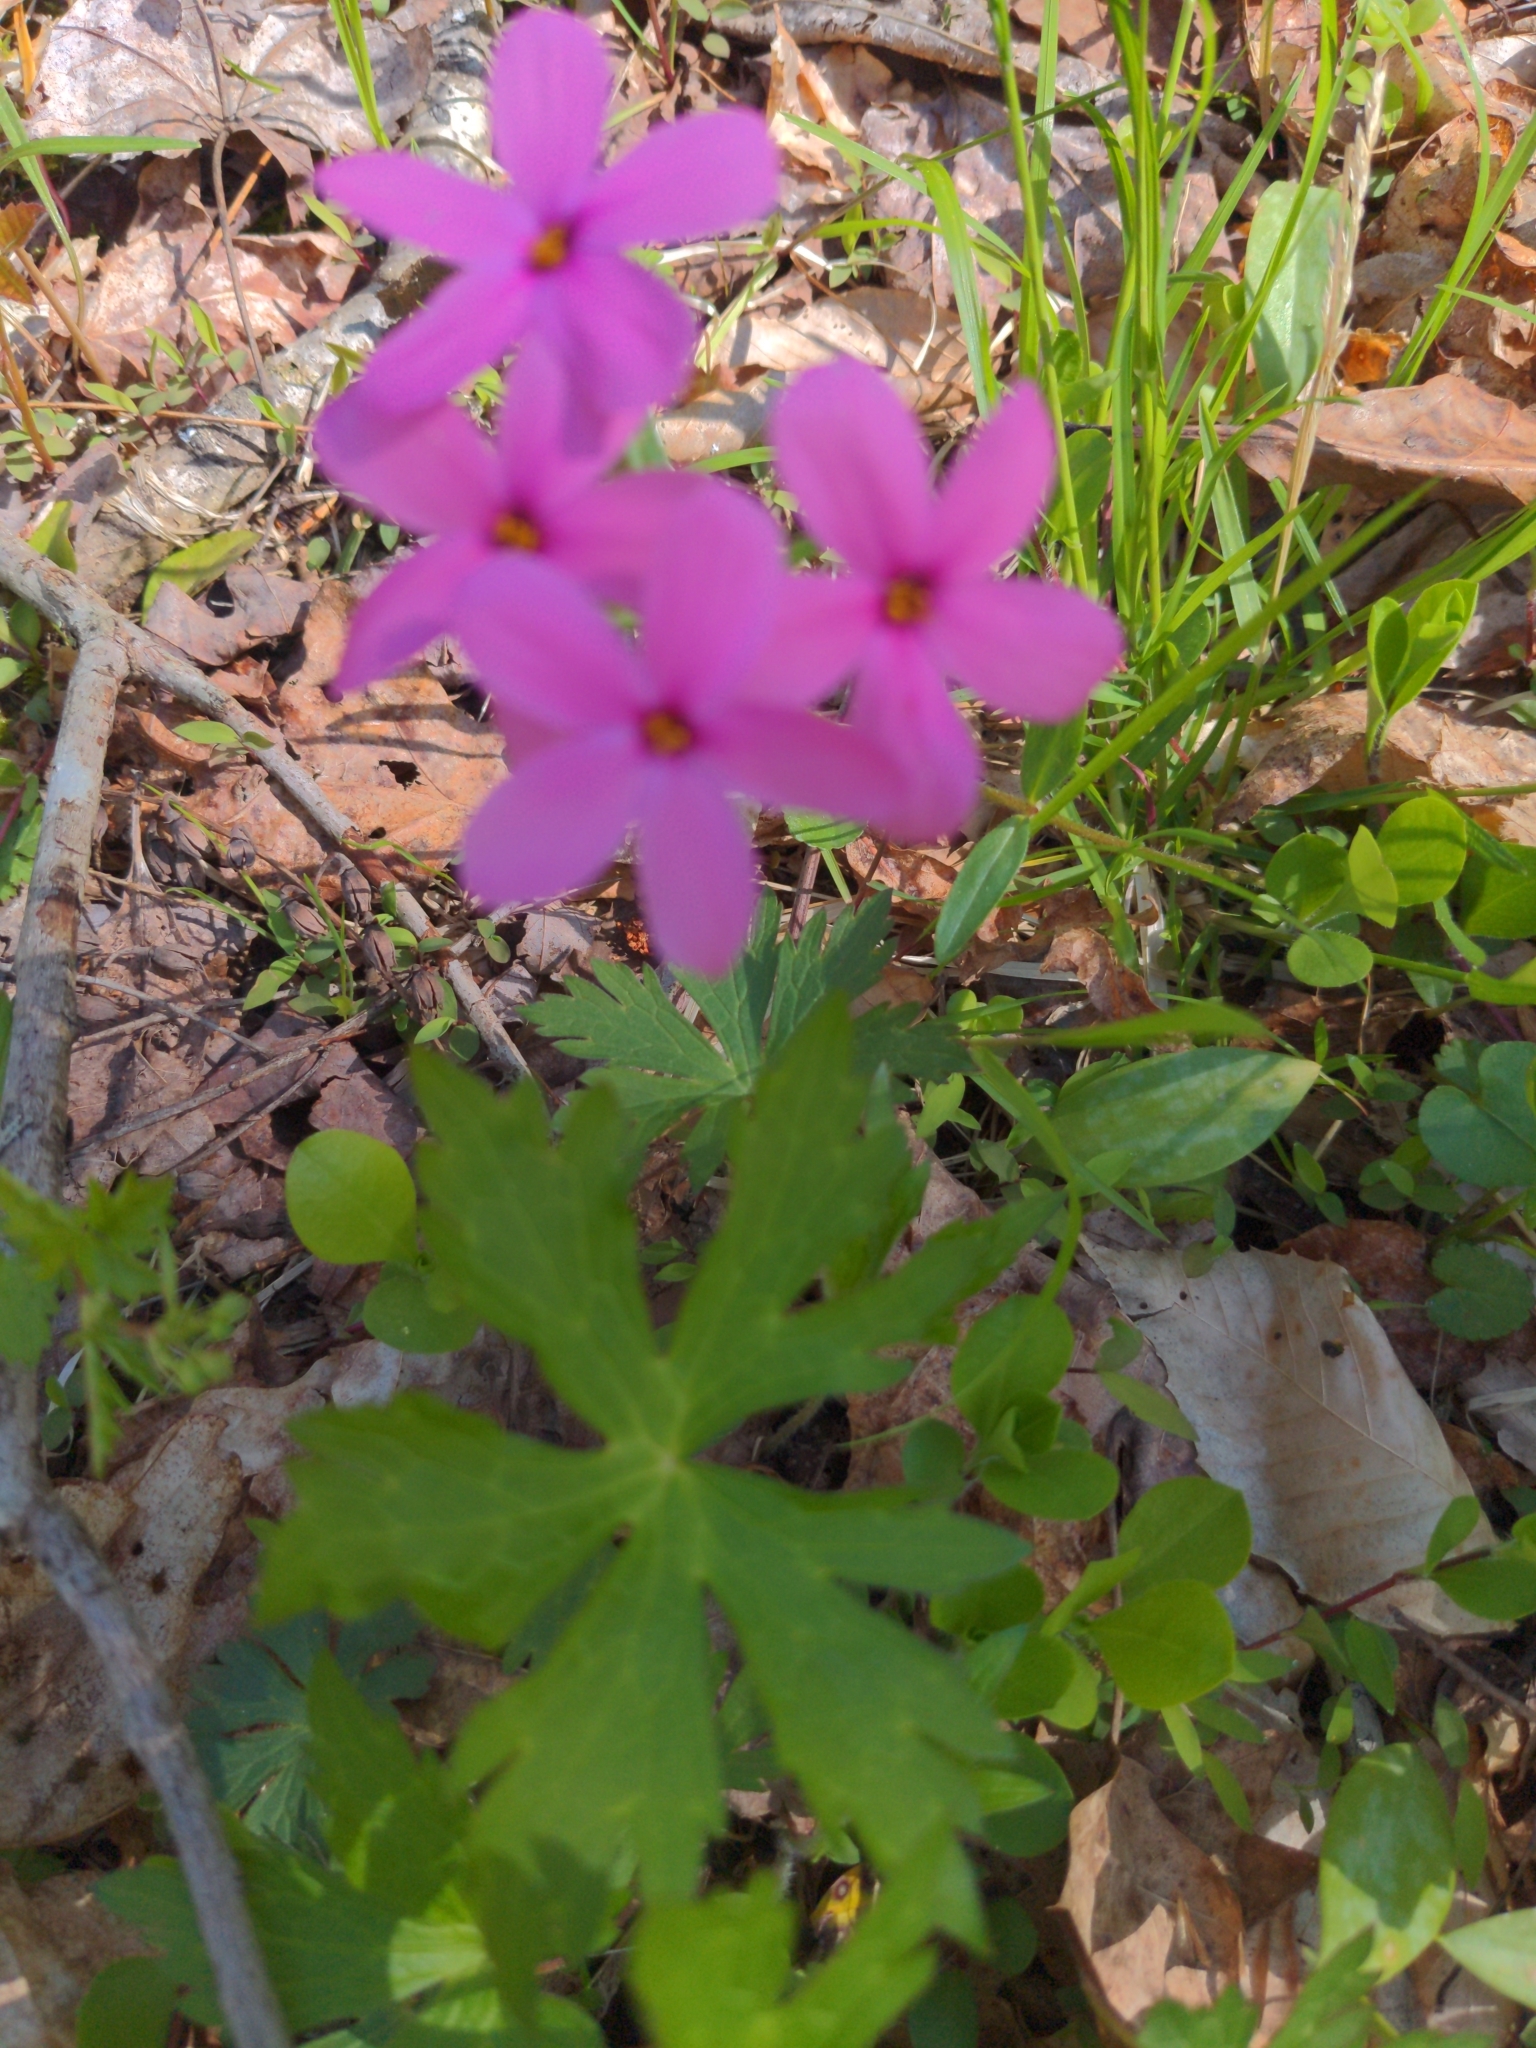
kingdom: Plantae
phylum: Tracheophyta
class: Magnoliopsida
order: Ericales
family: Polemoniaceae
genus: Phlox
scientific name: Phlox stolonifera
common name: Creeping phlox
